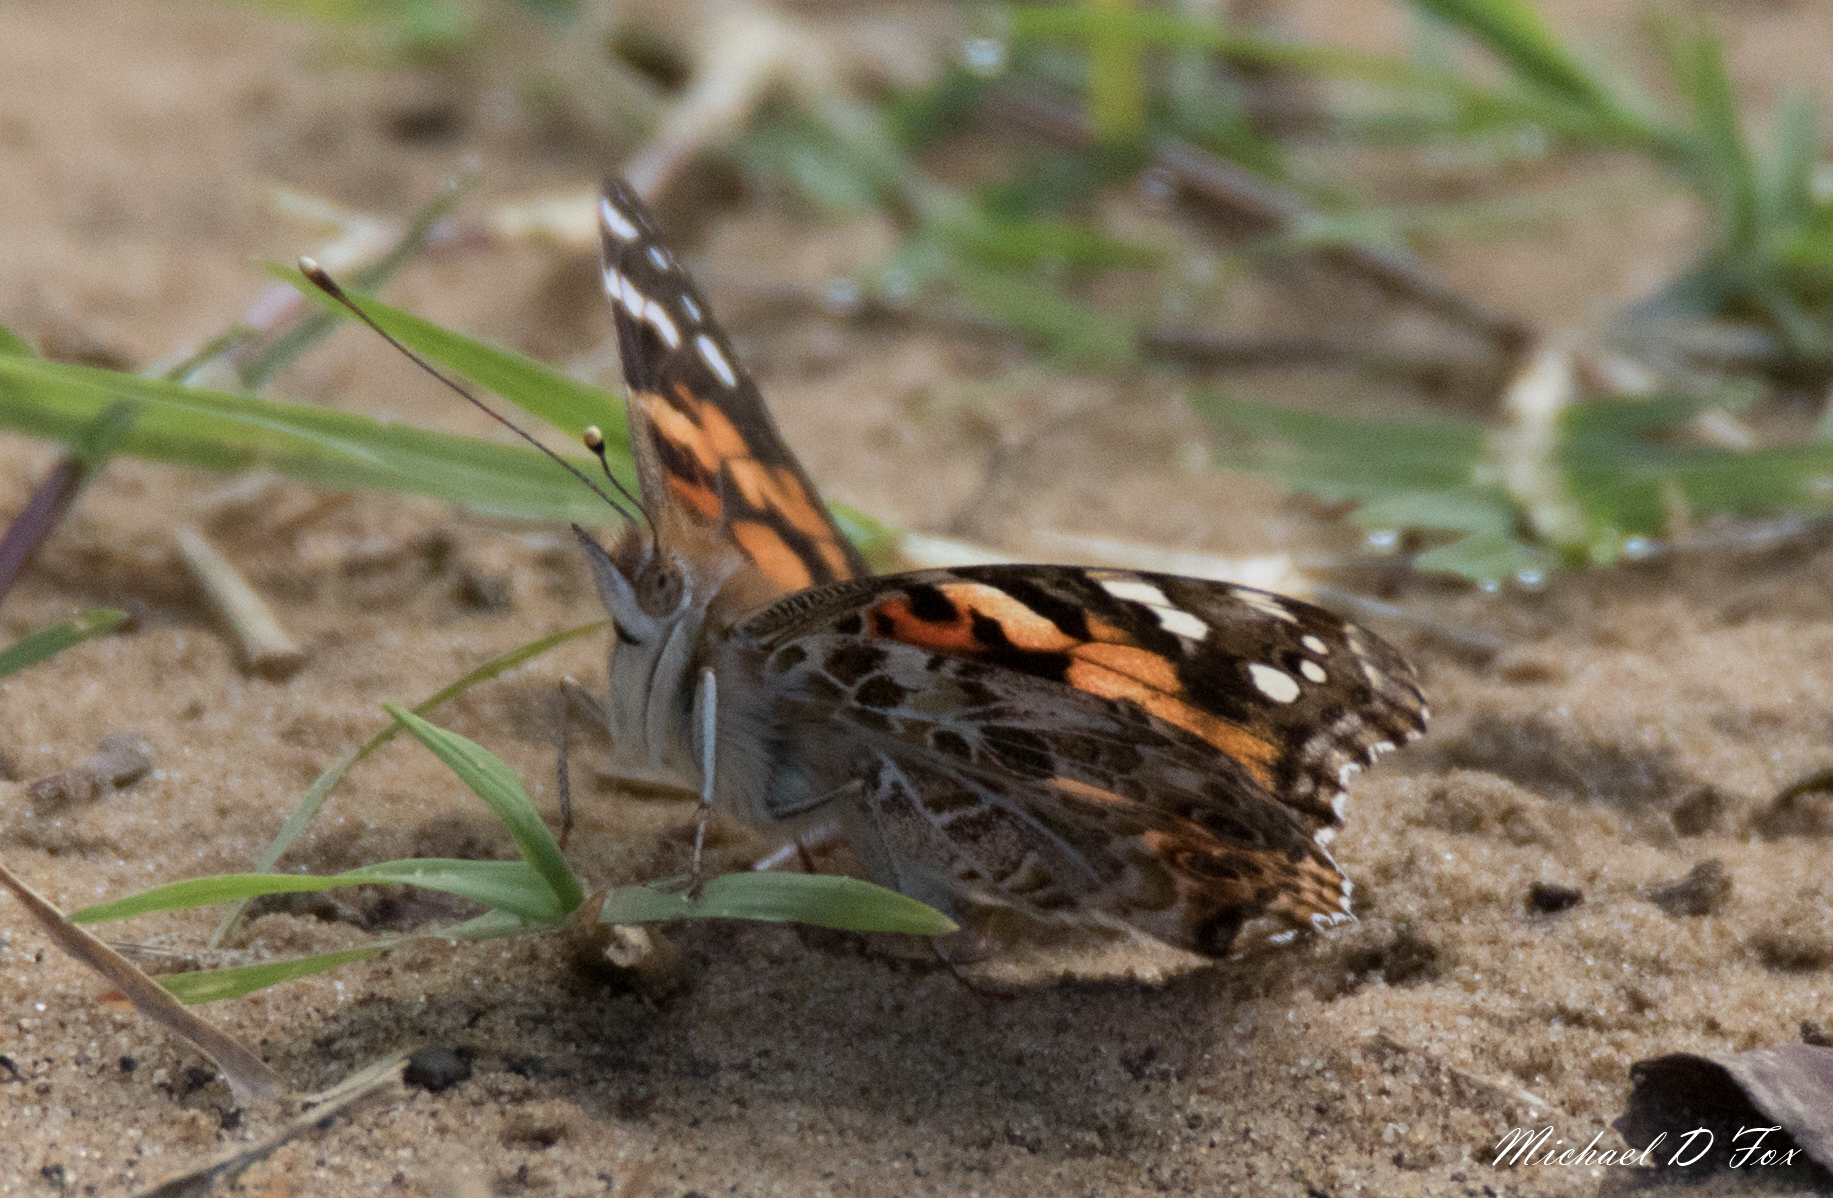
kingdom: Animalia
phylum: Arthropoda
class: Insecta
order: Lepidoptera
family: Nymphalidae
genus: Vanessa
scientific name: Vanessa cardui
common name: Painted lady
